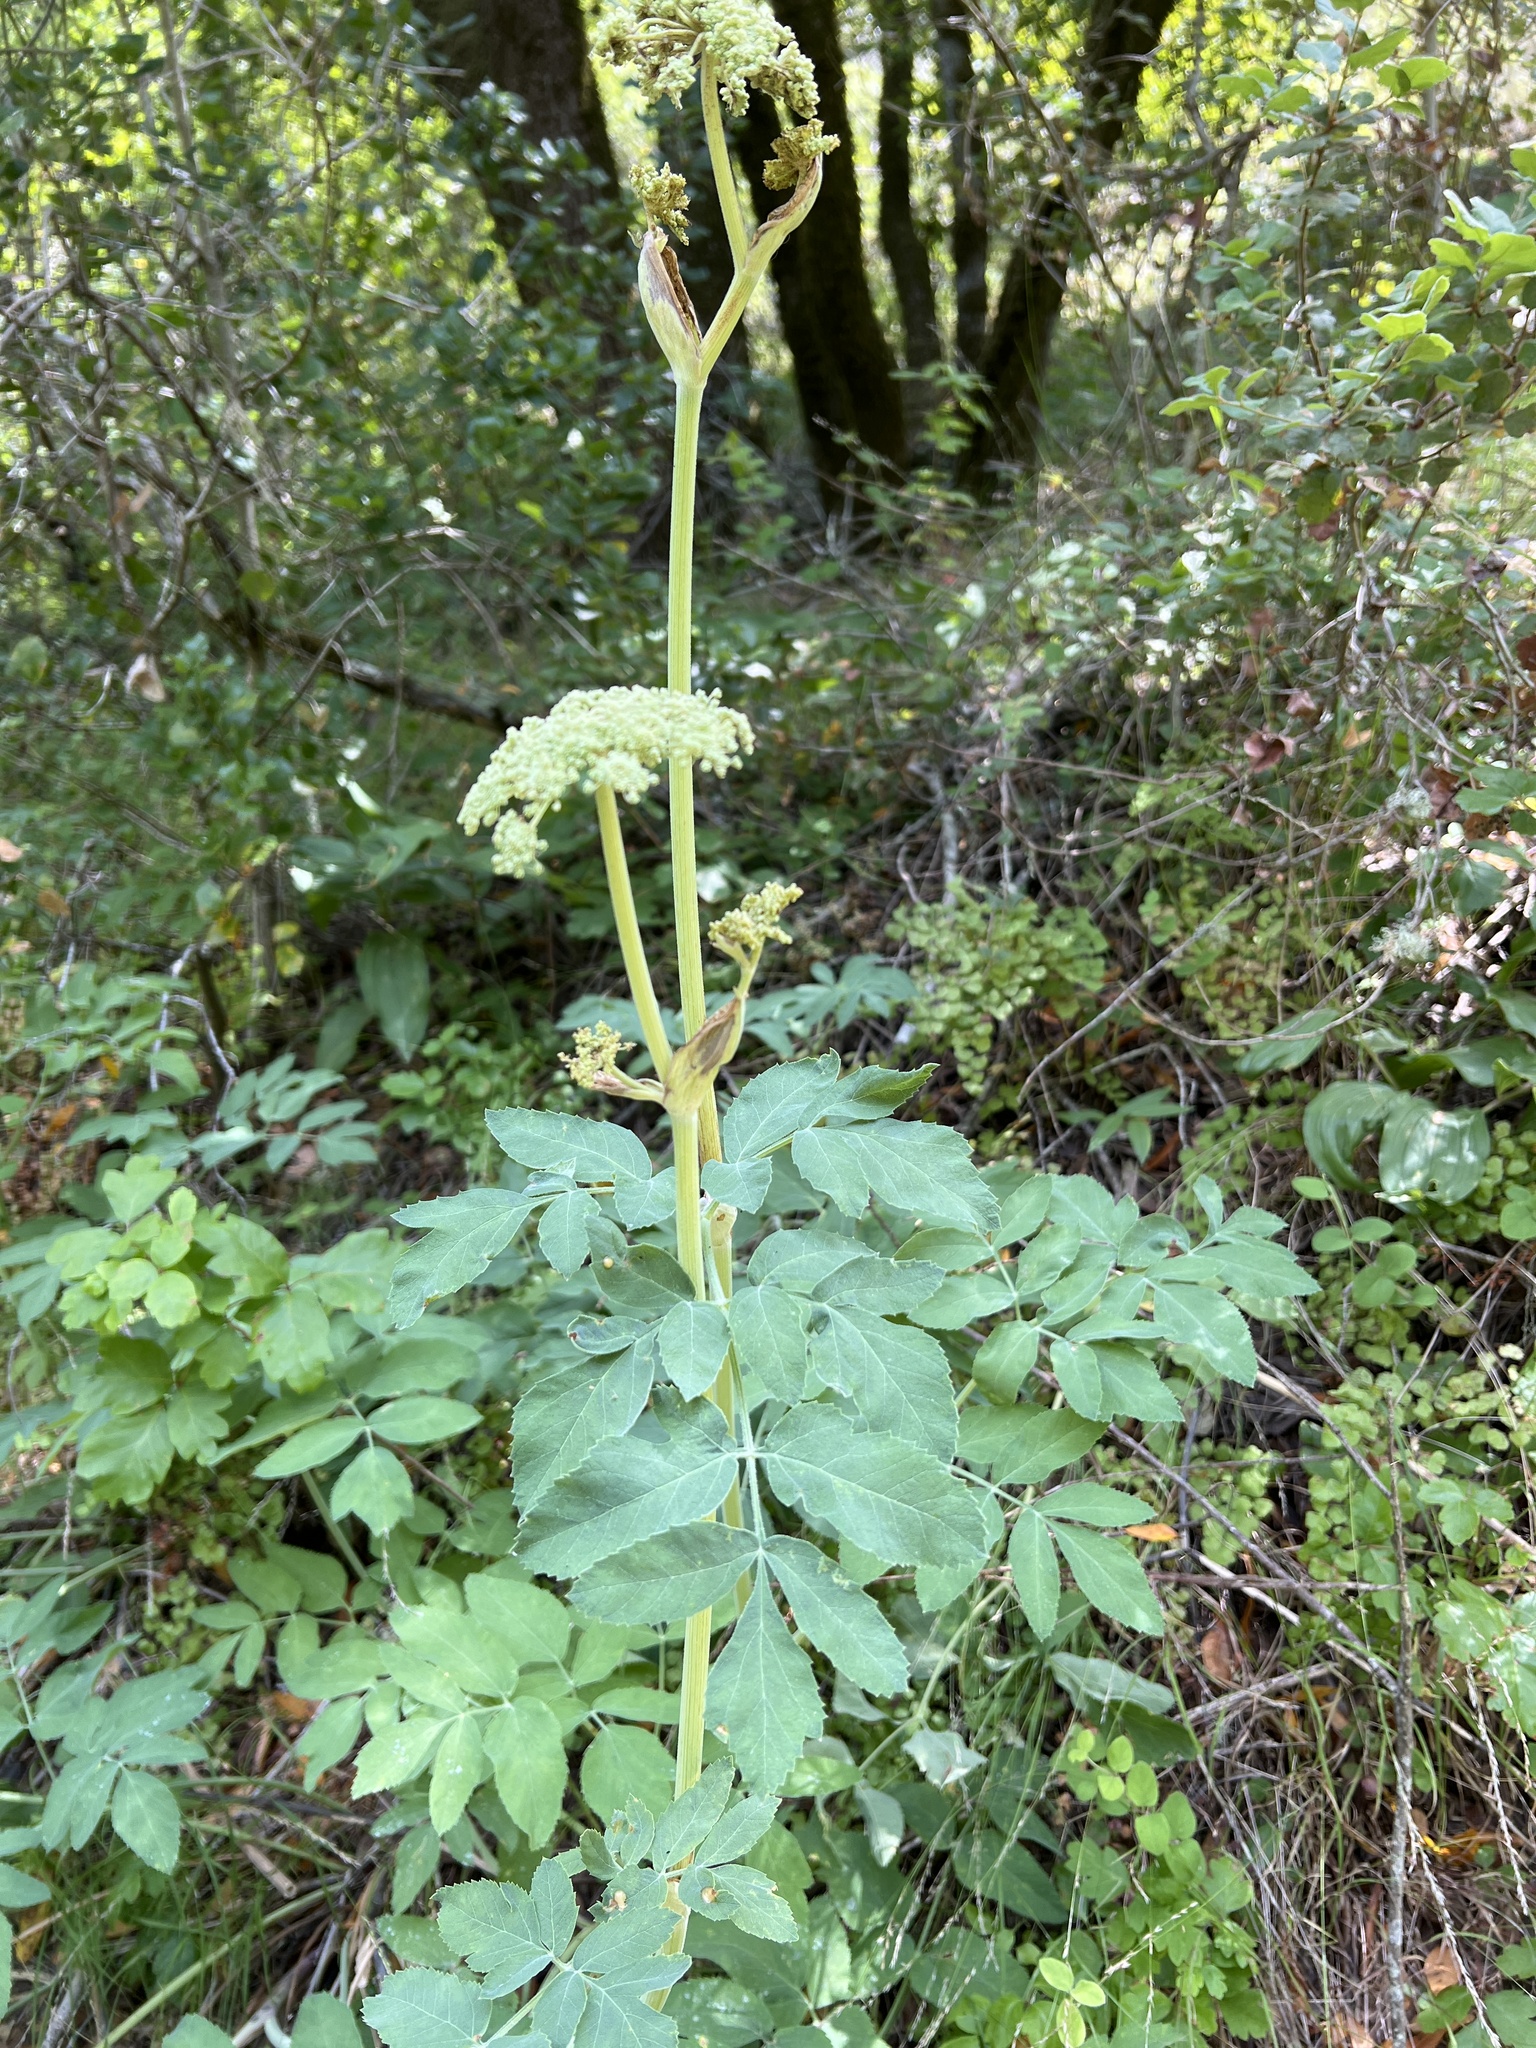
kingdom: Plantae
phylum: Tracheophyta
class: Magnoliopsida
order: Apiales
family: Apiaceae
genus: Angelica
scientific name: Angelica tomentosa
